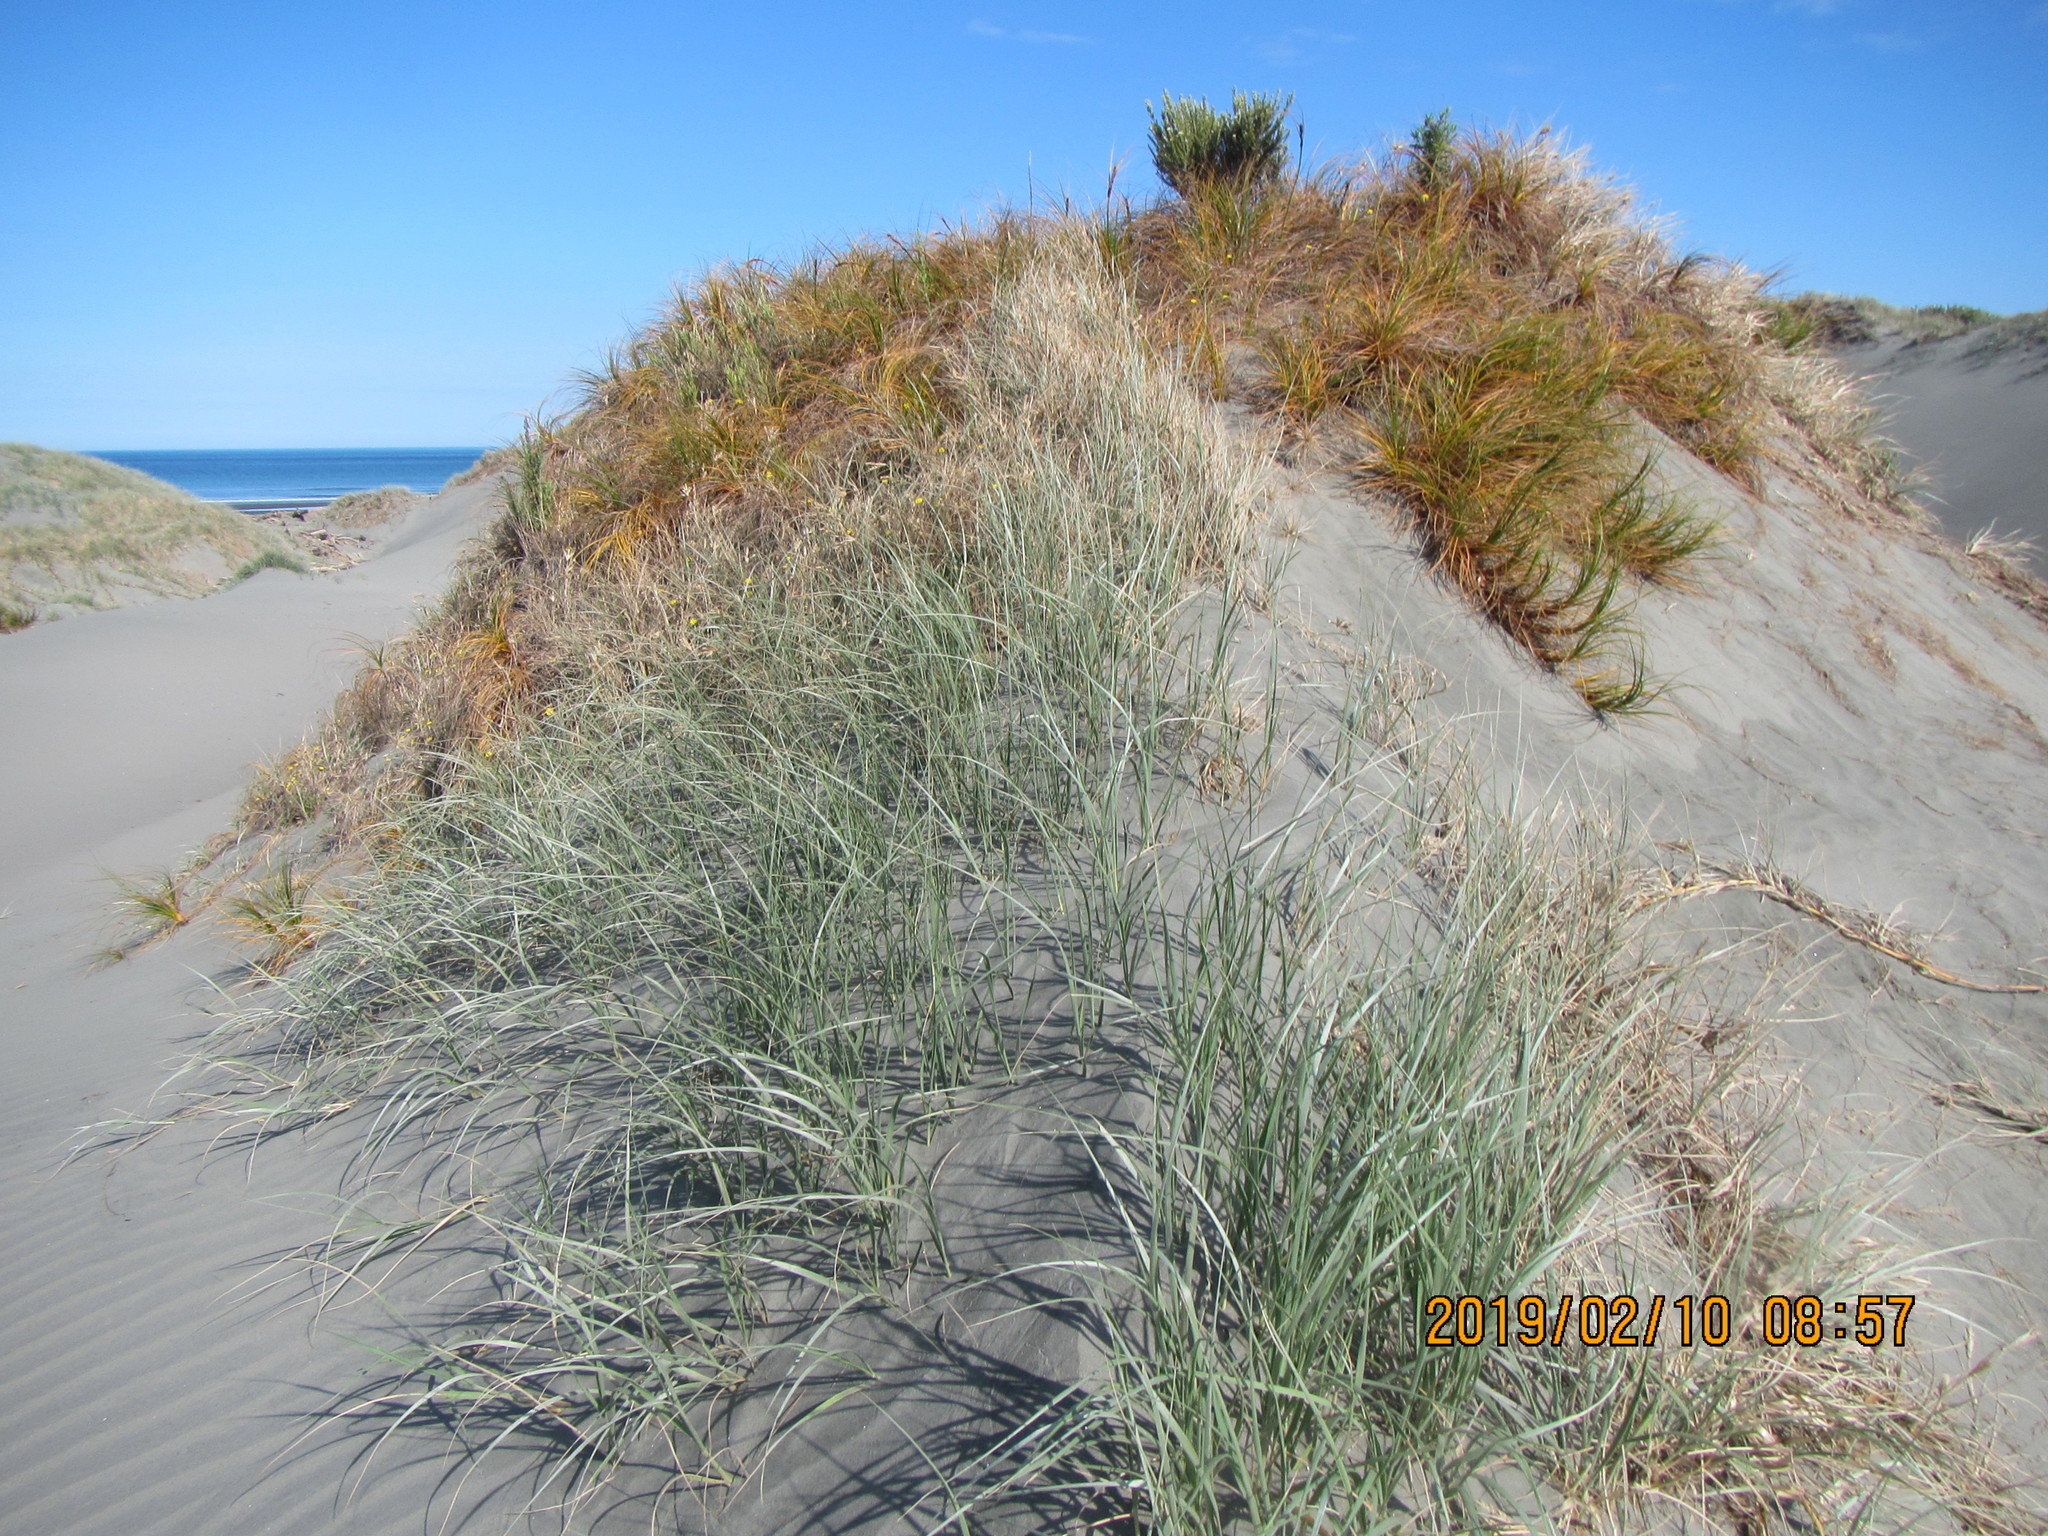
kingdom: Plantae
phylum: Tracheophyta
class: Magnoliopsida
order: Asterales
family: Asteraceae
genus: Ozothamnus
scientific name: Ozothamnus leptophyllus
